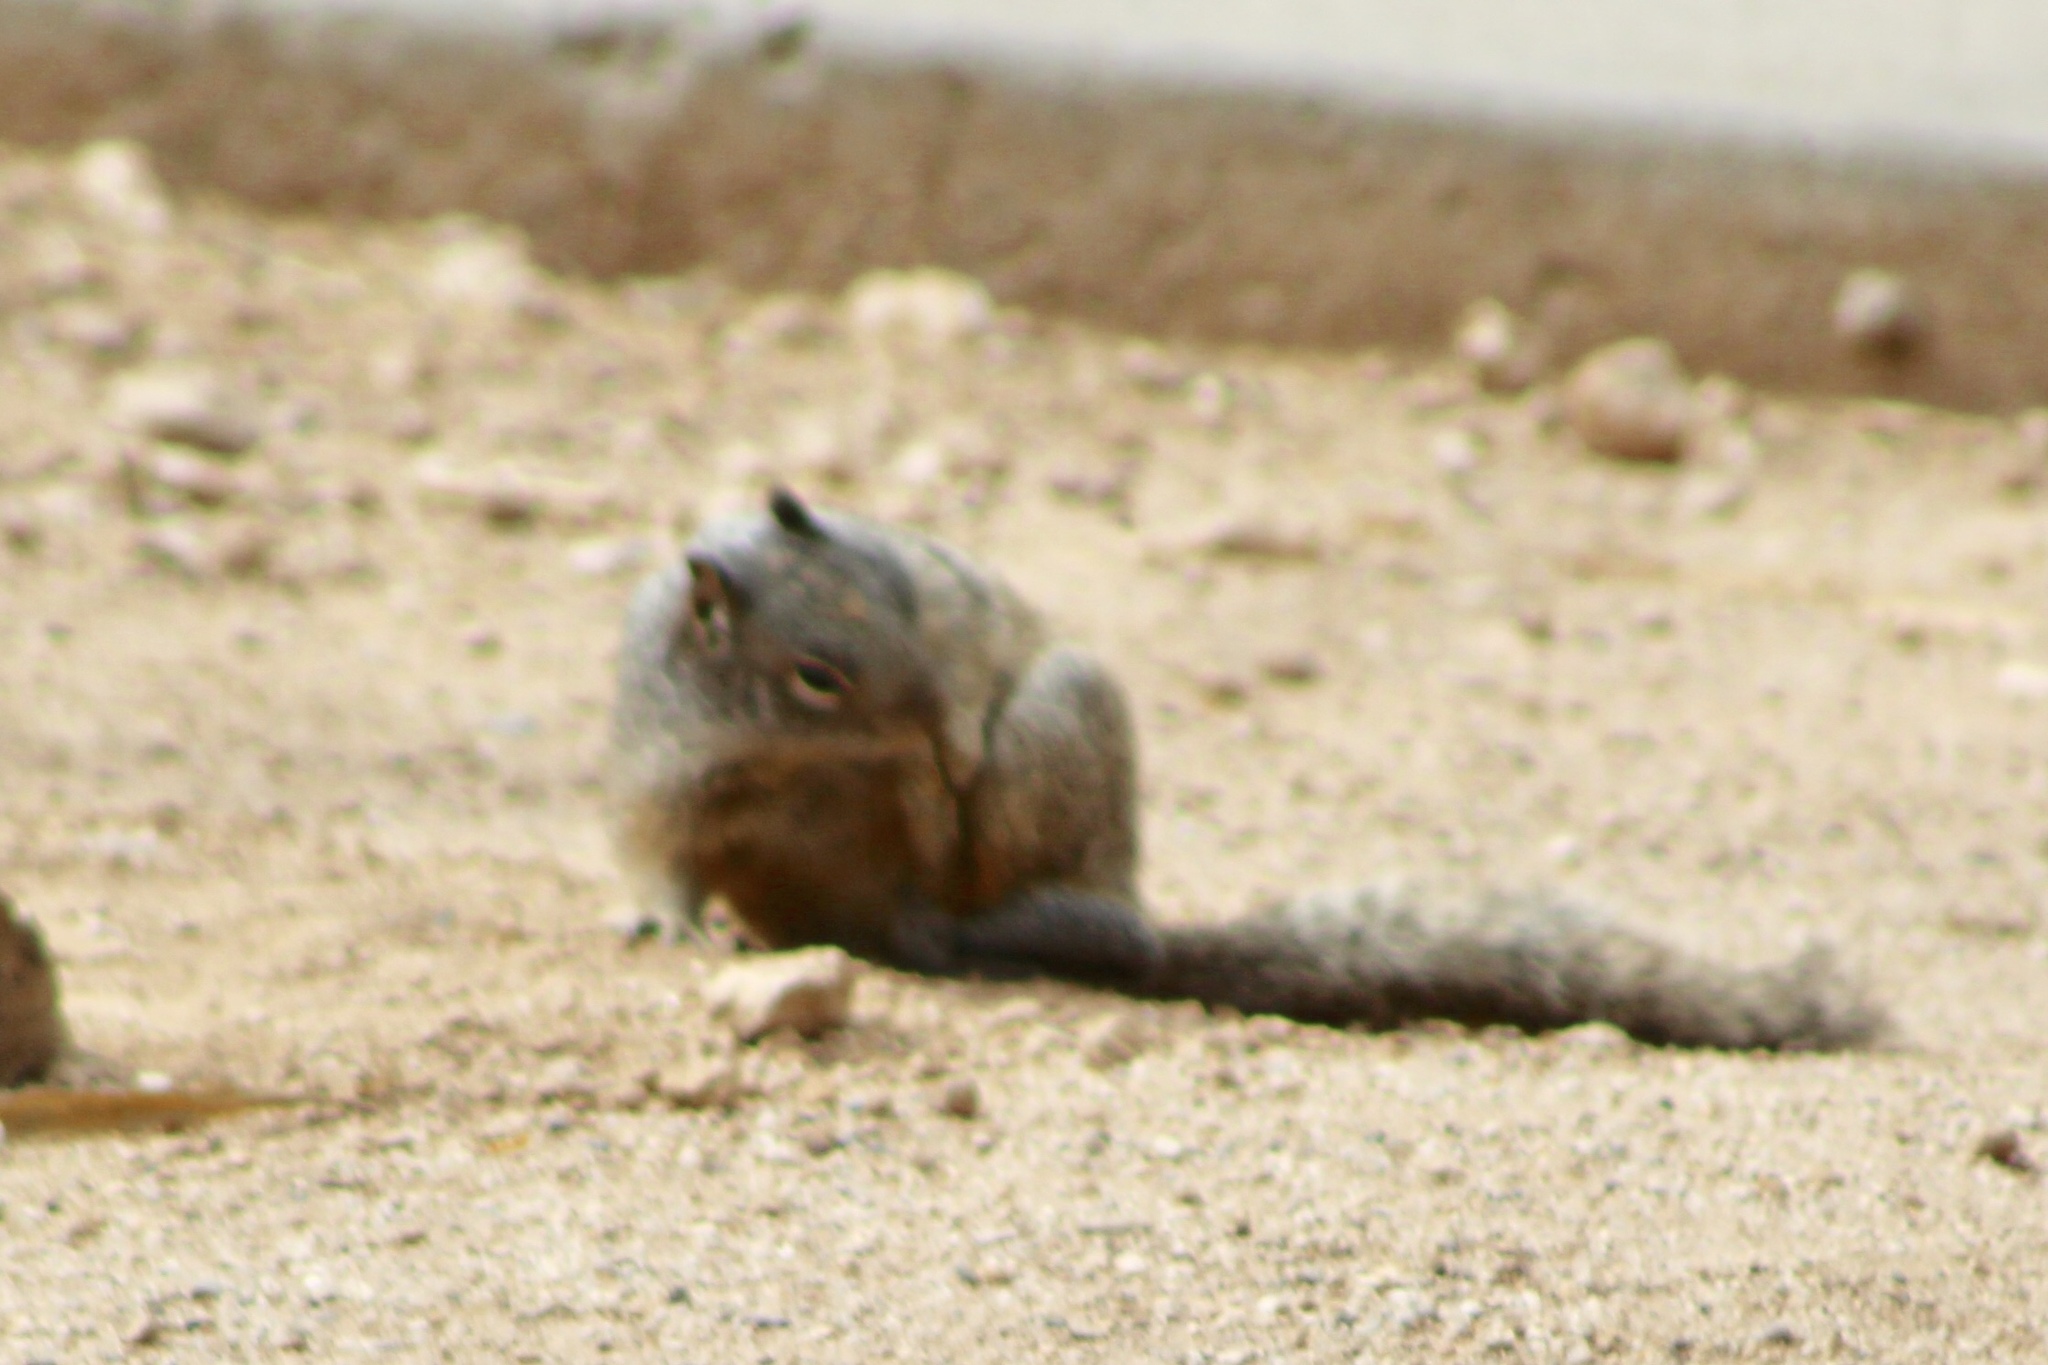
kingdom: Animalia
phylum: Chordata
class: Mammalia
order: Rodentia
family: Sciuridae
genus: Otospermophilus
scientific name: Otospermophilus variegatus
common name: Rock squirrel
